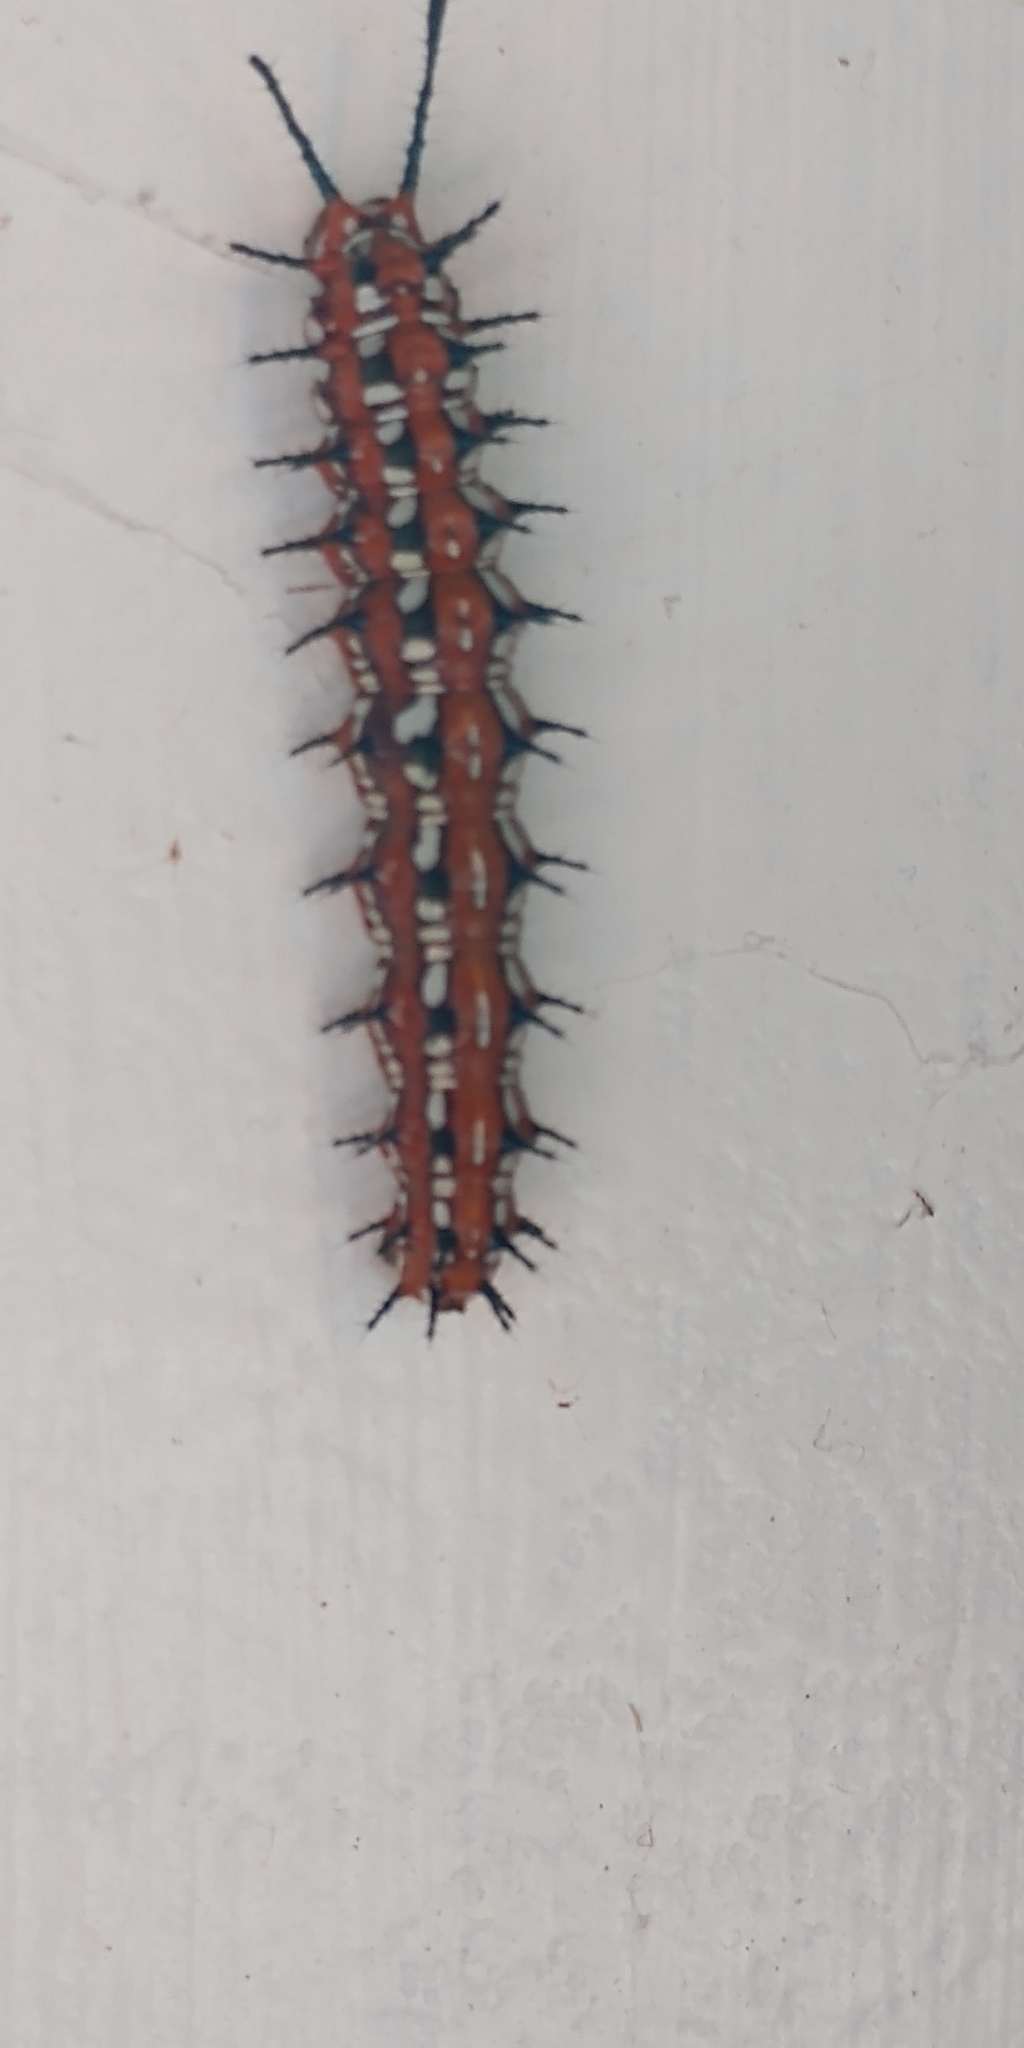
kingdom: Animalia
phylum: Arthropoda
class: Insecta
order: Lepidoptera
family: Nymphalidae
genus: Euptoieta
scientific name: Euptoieta claudia
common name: Variegated fritillary
